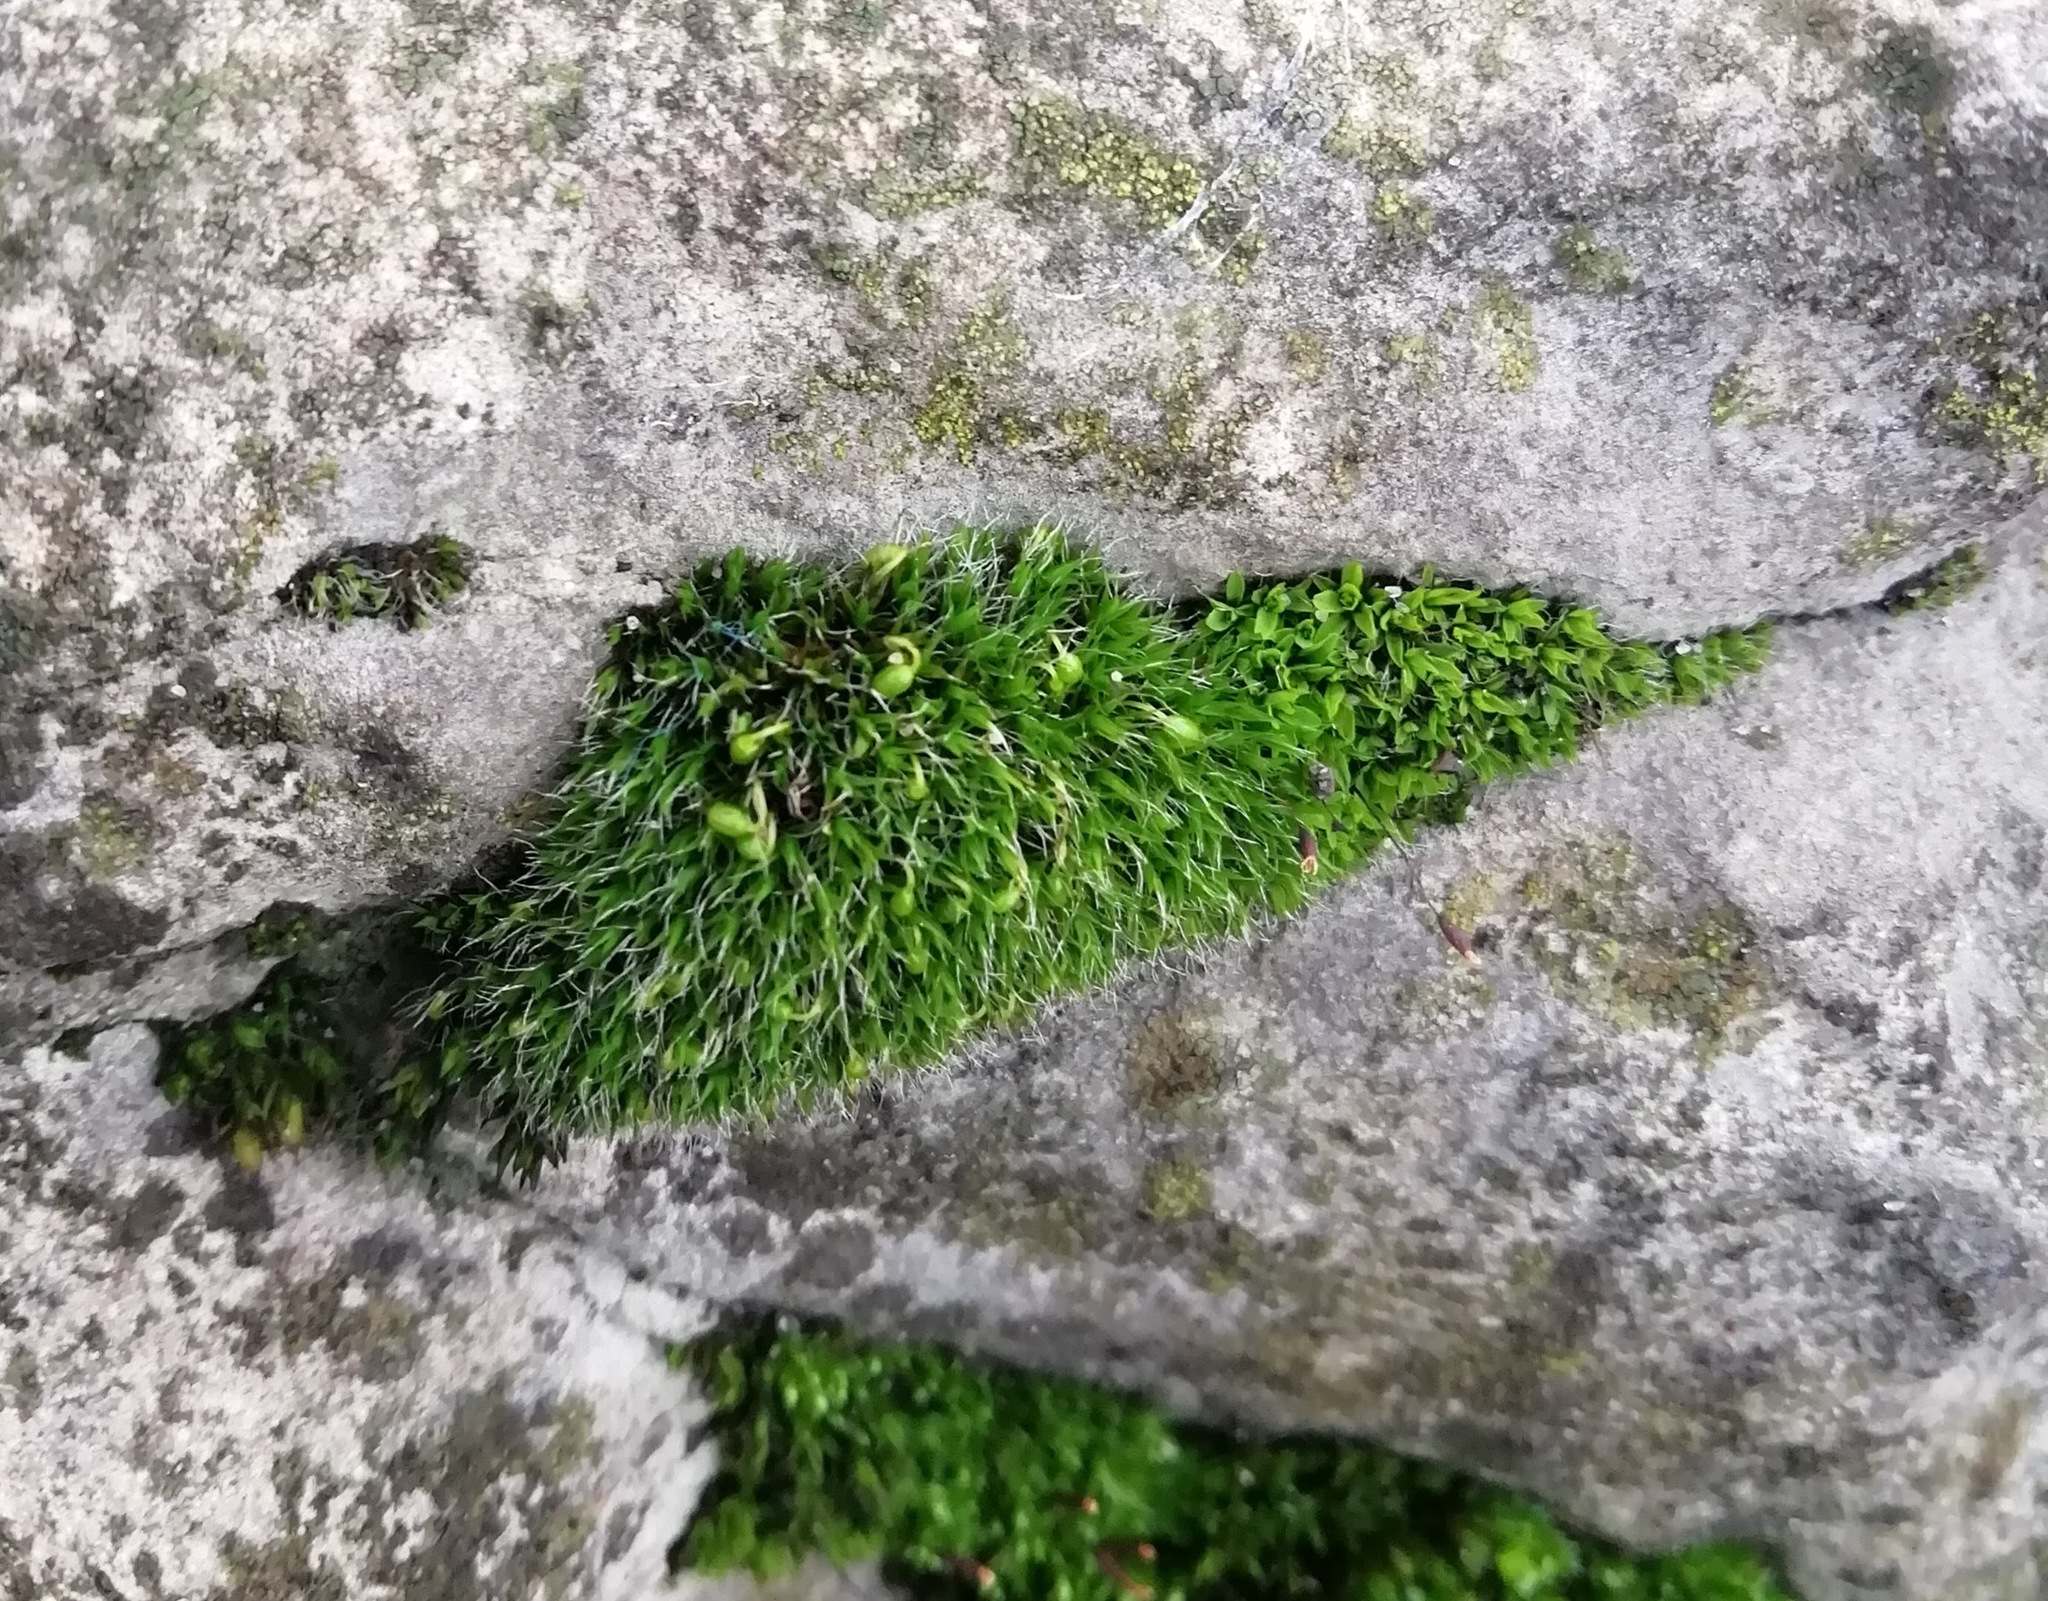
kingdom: Plantae
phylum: Bryophyta
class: Bryopsida
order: Grimmiales
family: Grimmiaceae
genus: Grimmia
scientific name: Grimmia pulvinata
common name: Grey-cushioned grimmia
